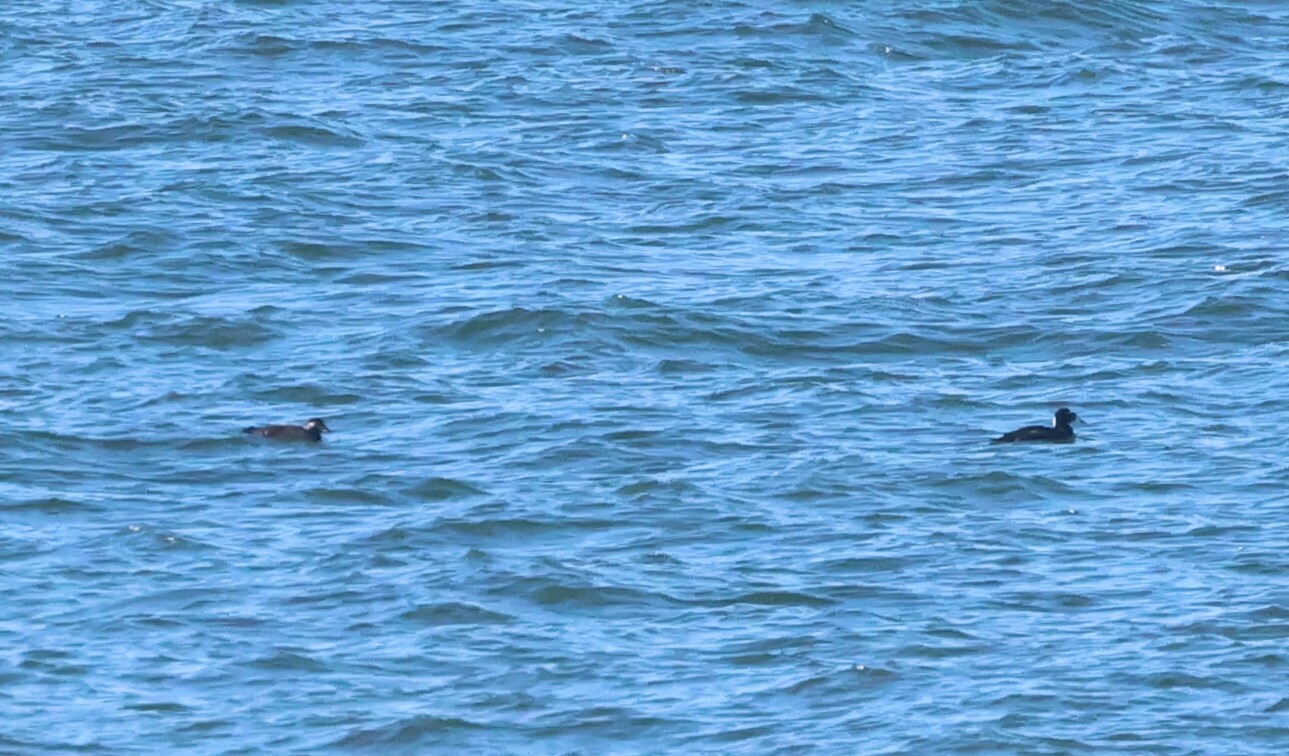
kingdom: Animalia
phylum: Chordata
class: Aves
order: Anseriformes
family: Anatidae
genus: Melanitta
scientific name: Melanitta perspicillata
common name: Surf scoter
